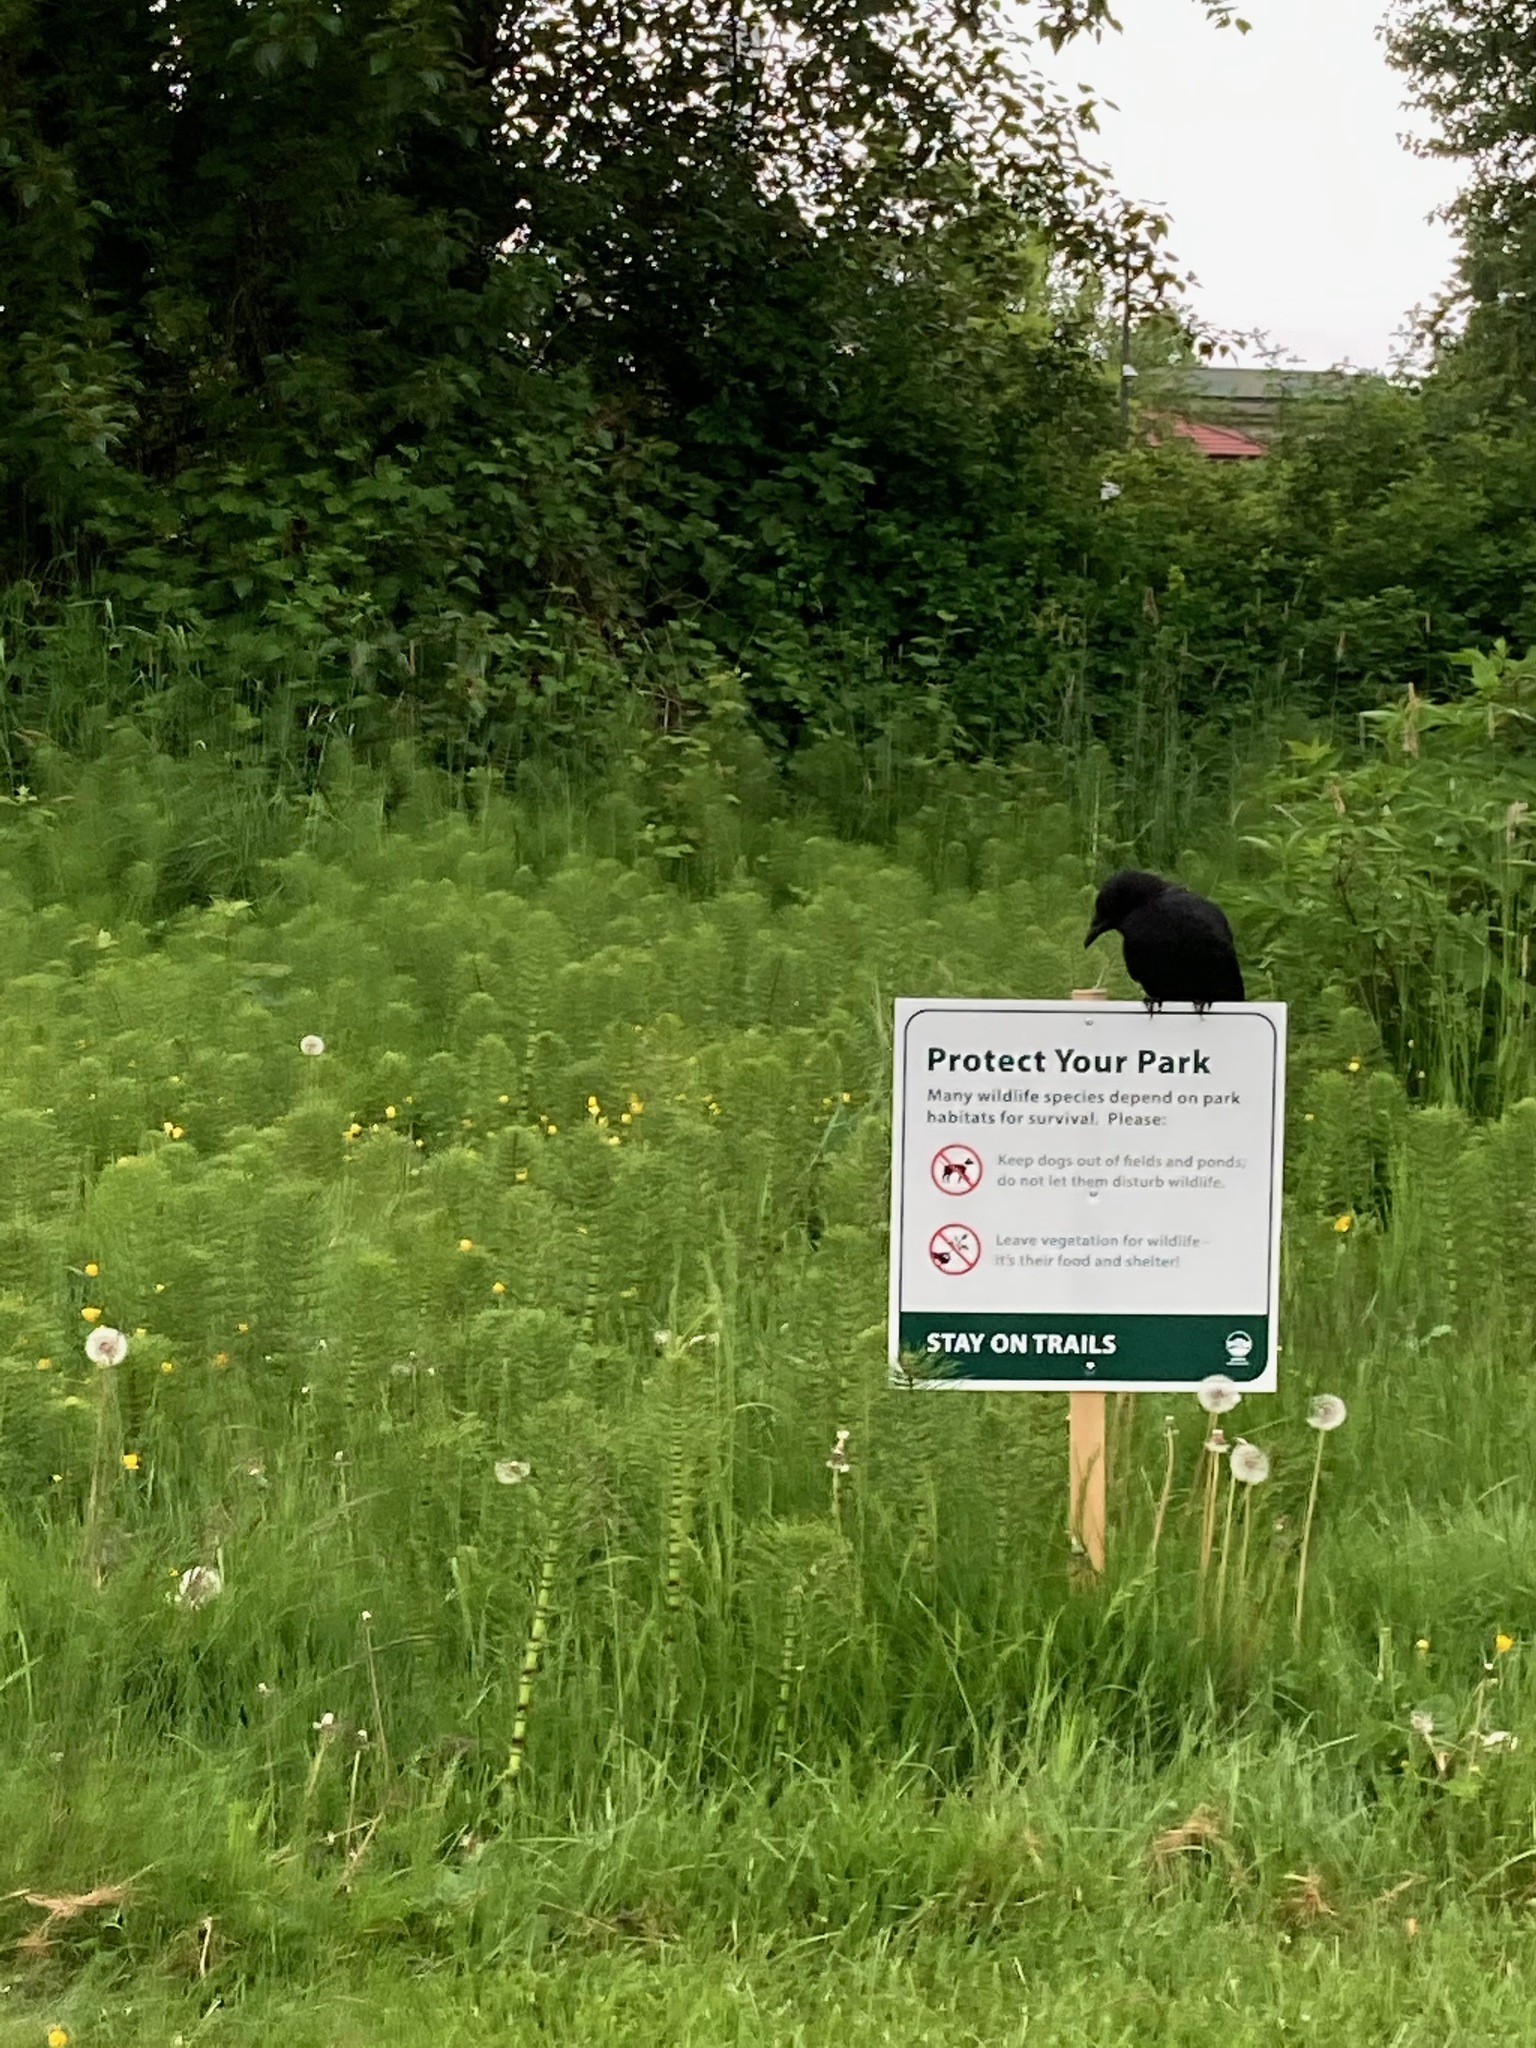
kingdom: Animalia
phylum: Chordata
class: Aves
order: Passeriformes
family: Corvidae
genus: Corvus
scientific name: Corvus brachyrhynchos
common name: American crow
